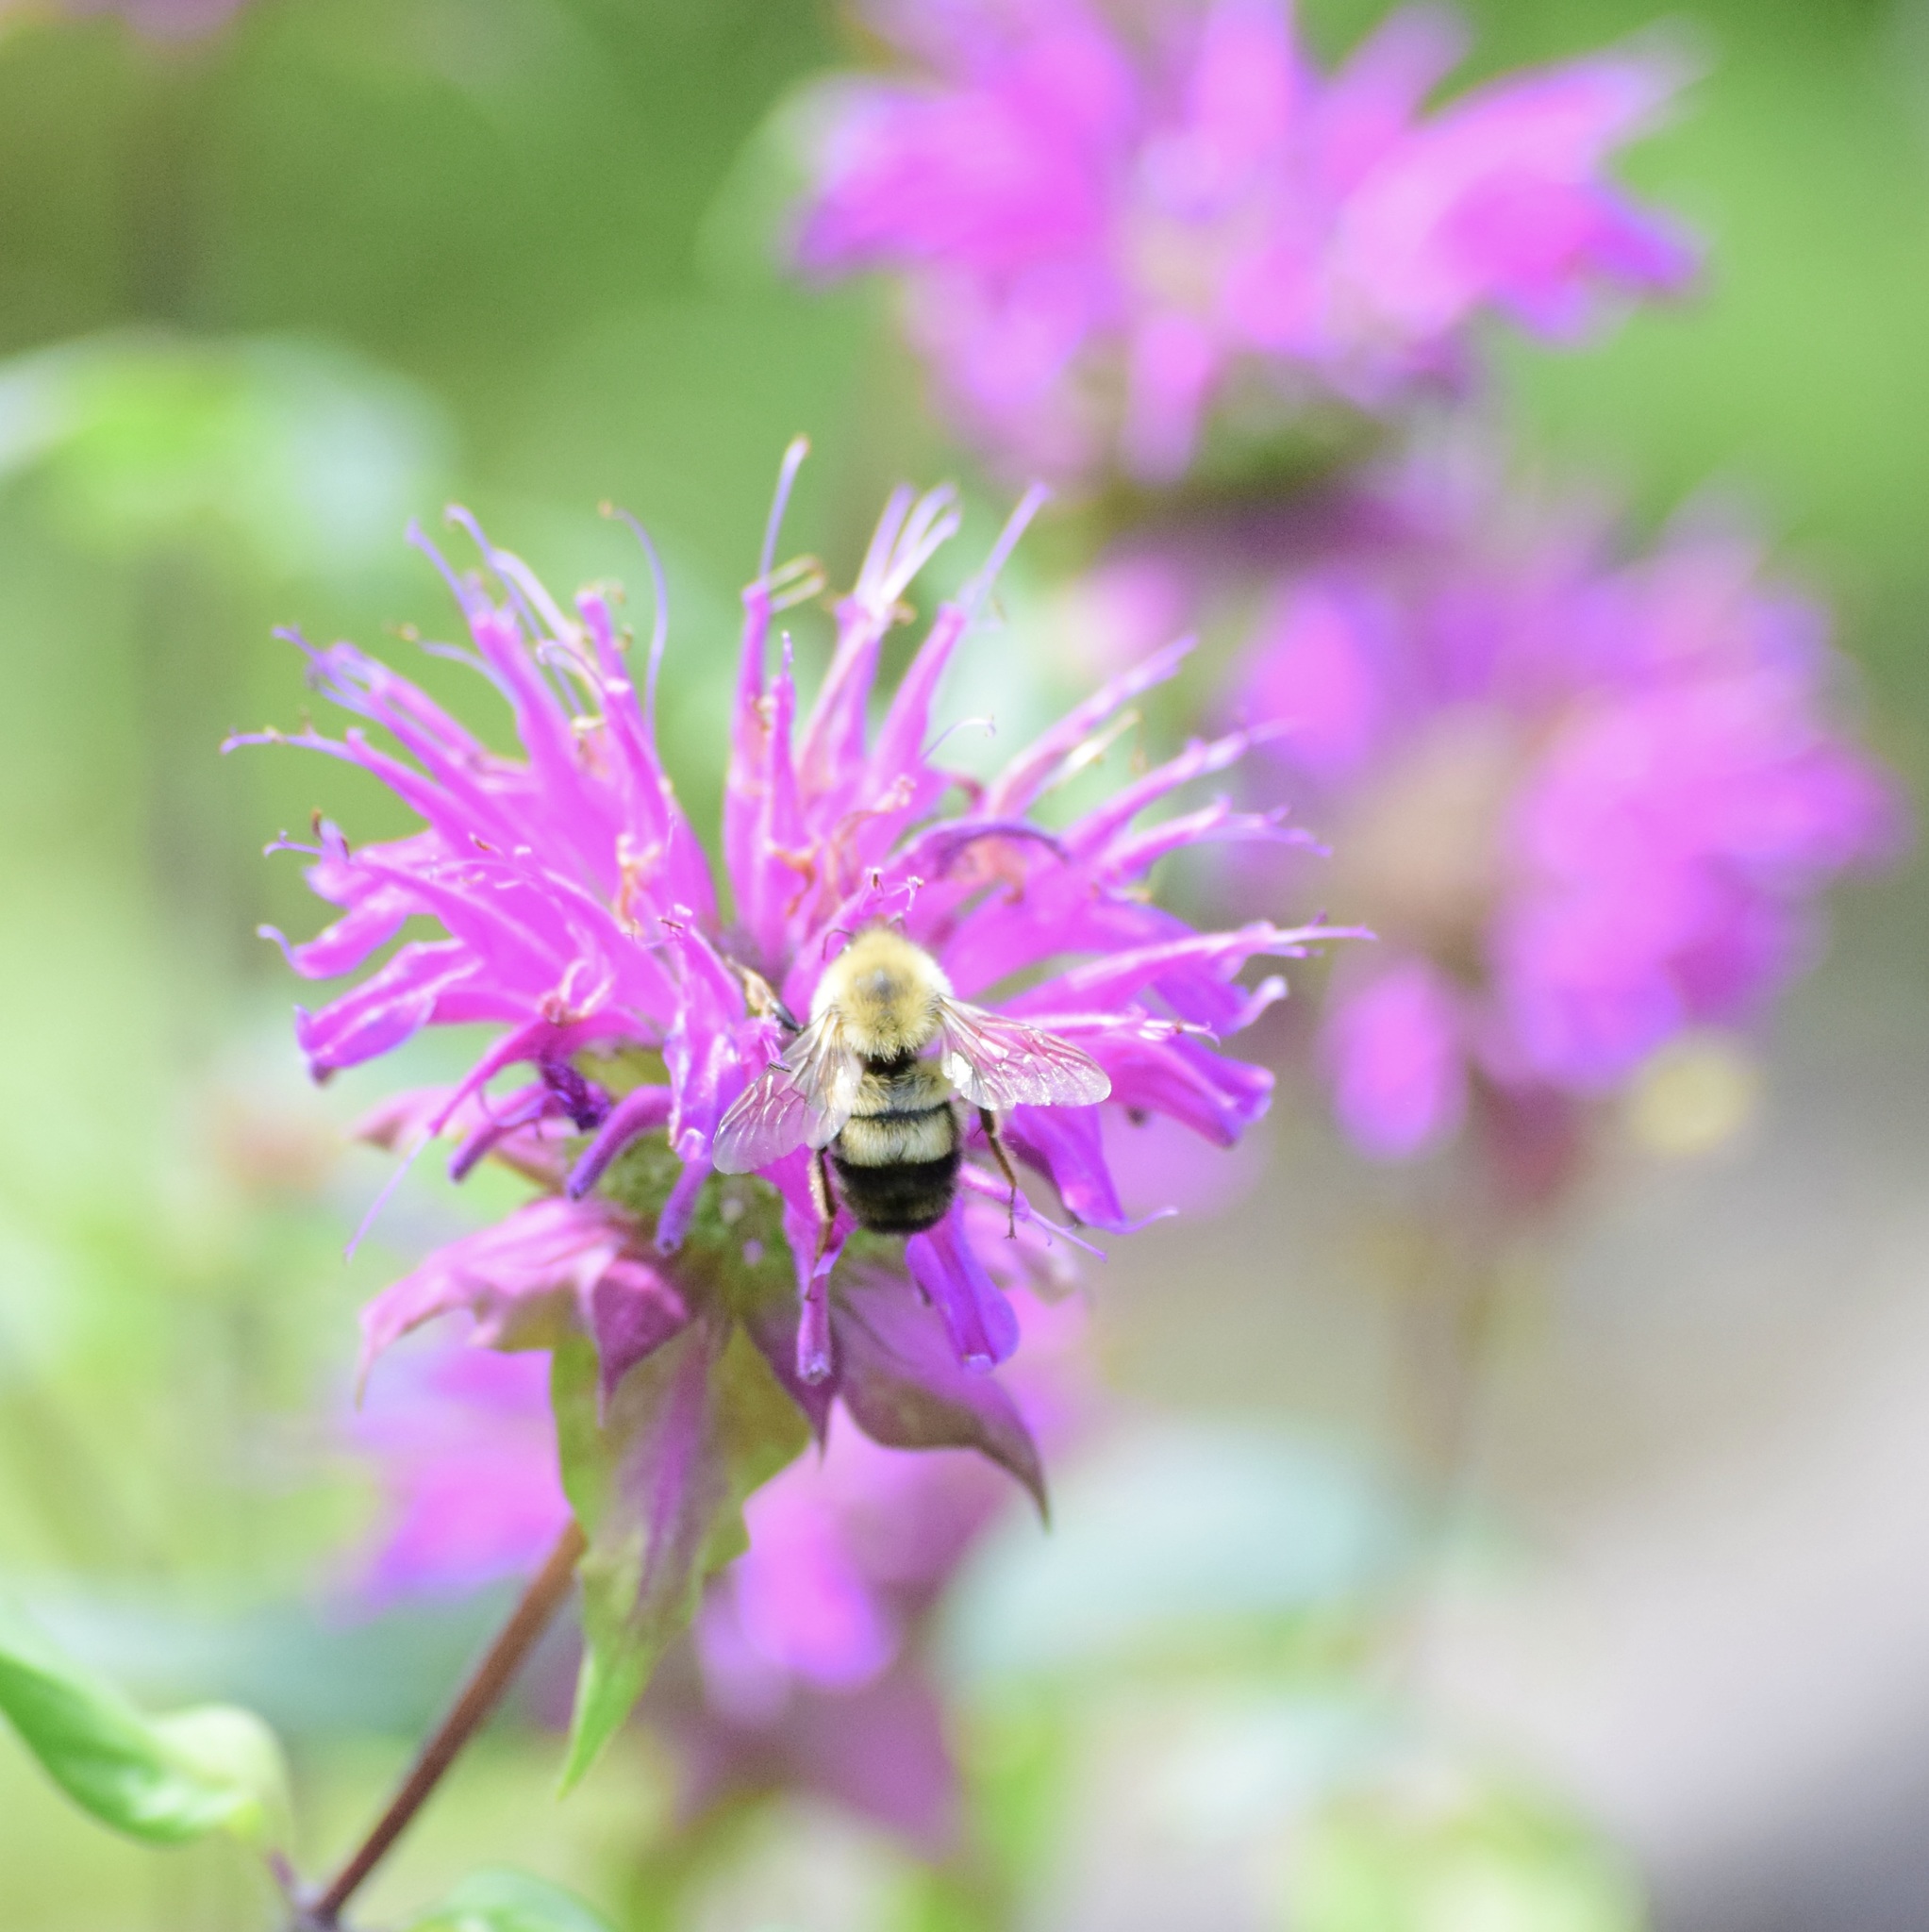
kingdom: Animalia
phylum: Arthropoda
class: Insecta
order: Hymenoptera
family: Apidae
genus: Bombus
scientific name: Bombus bimaculatus
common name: Two-spotted bumble bee
